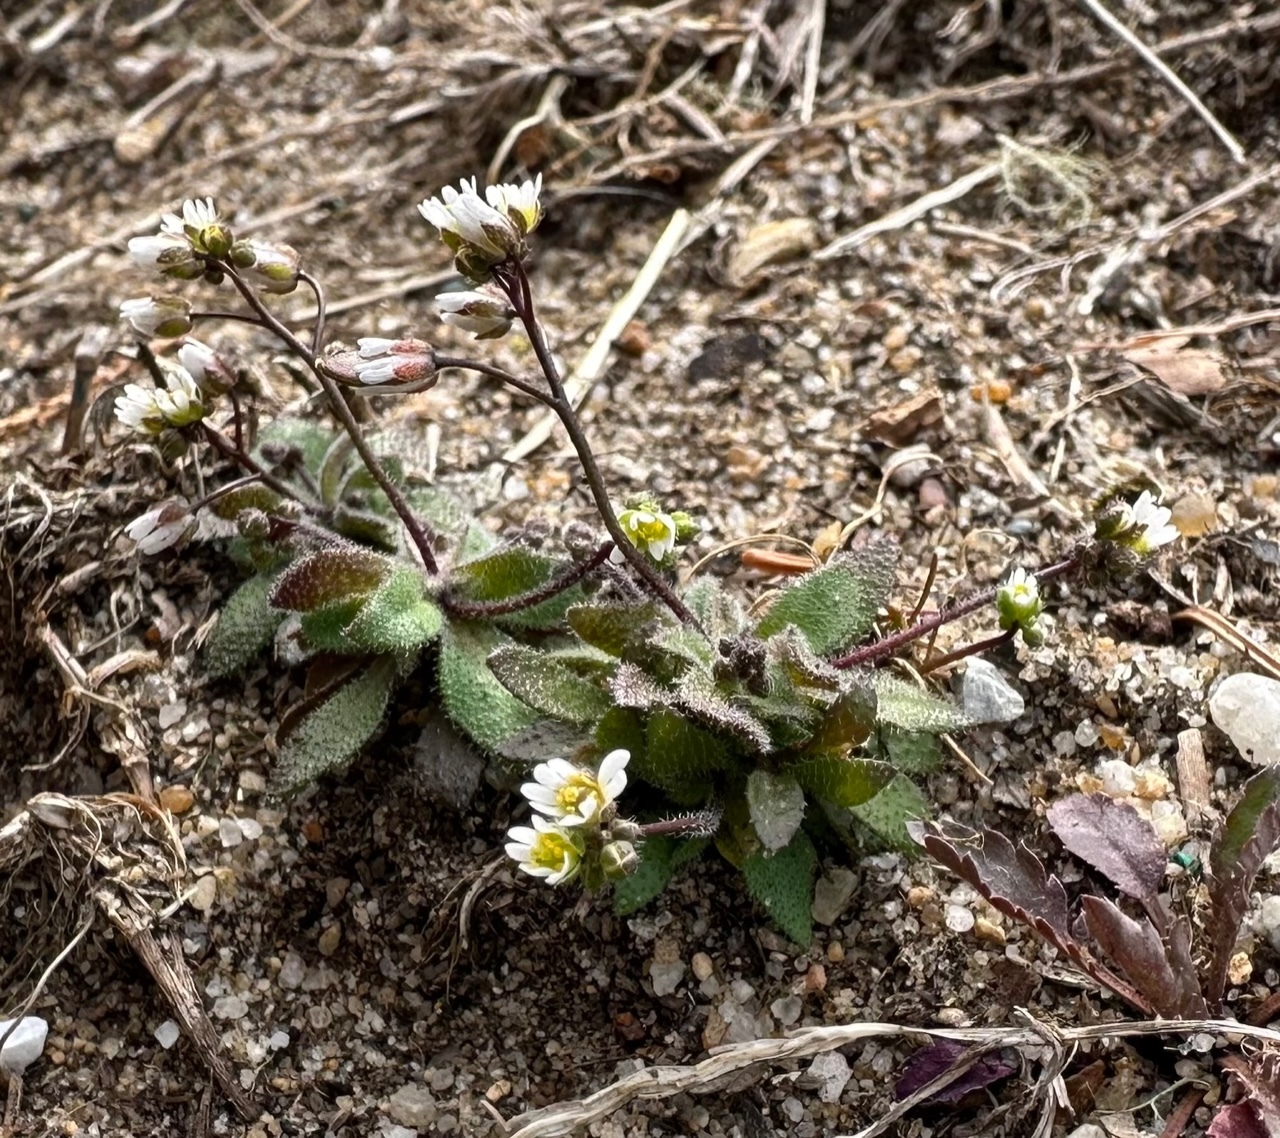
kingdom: Plantae
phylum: Tracheophyta
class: Magnoliopsida
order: Brassicales
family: Brassicaceae
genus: Draba
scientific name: Draba verna
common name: Spring draba
